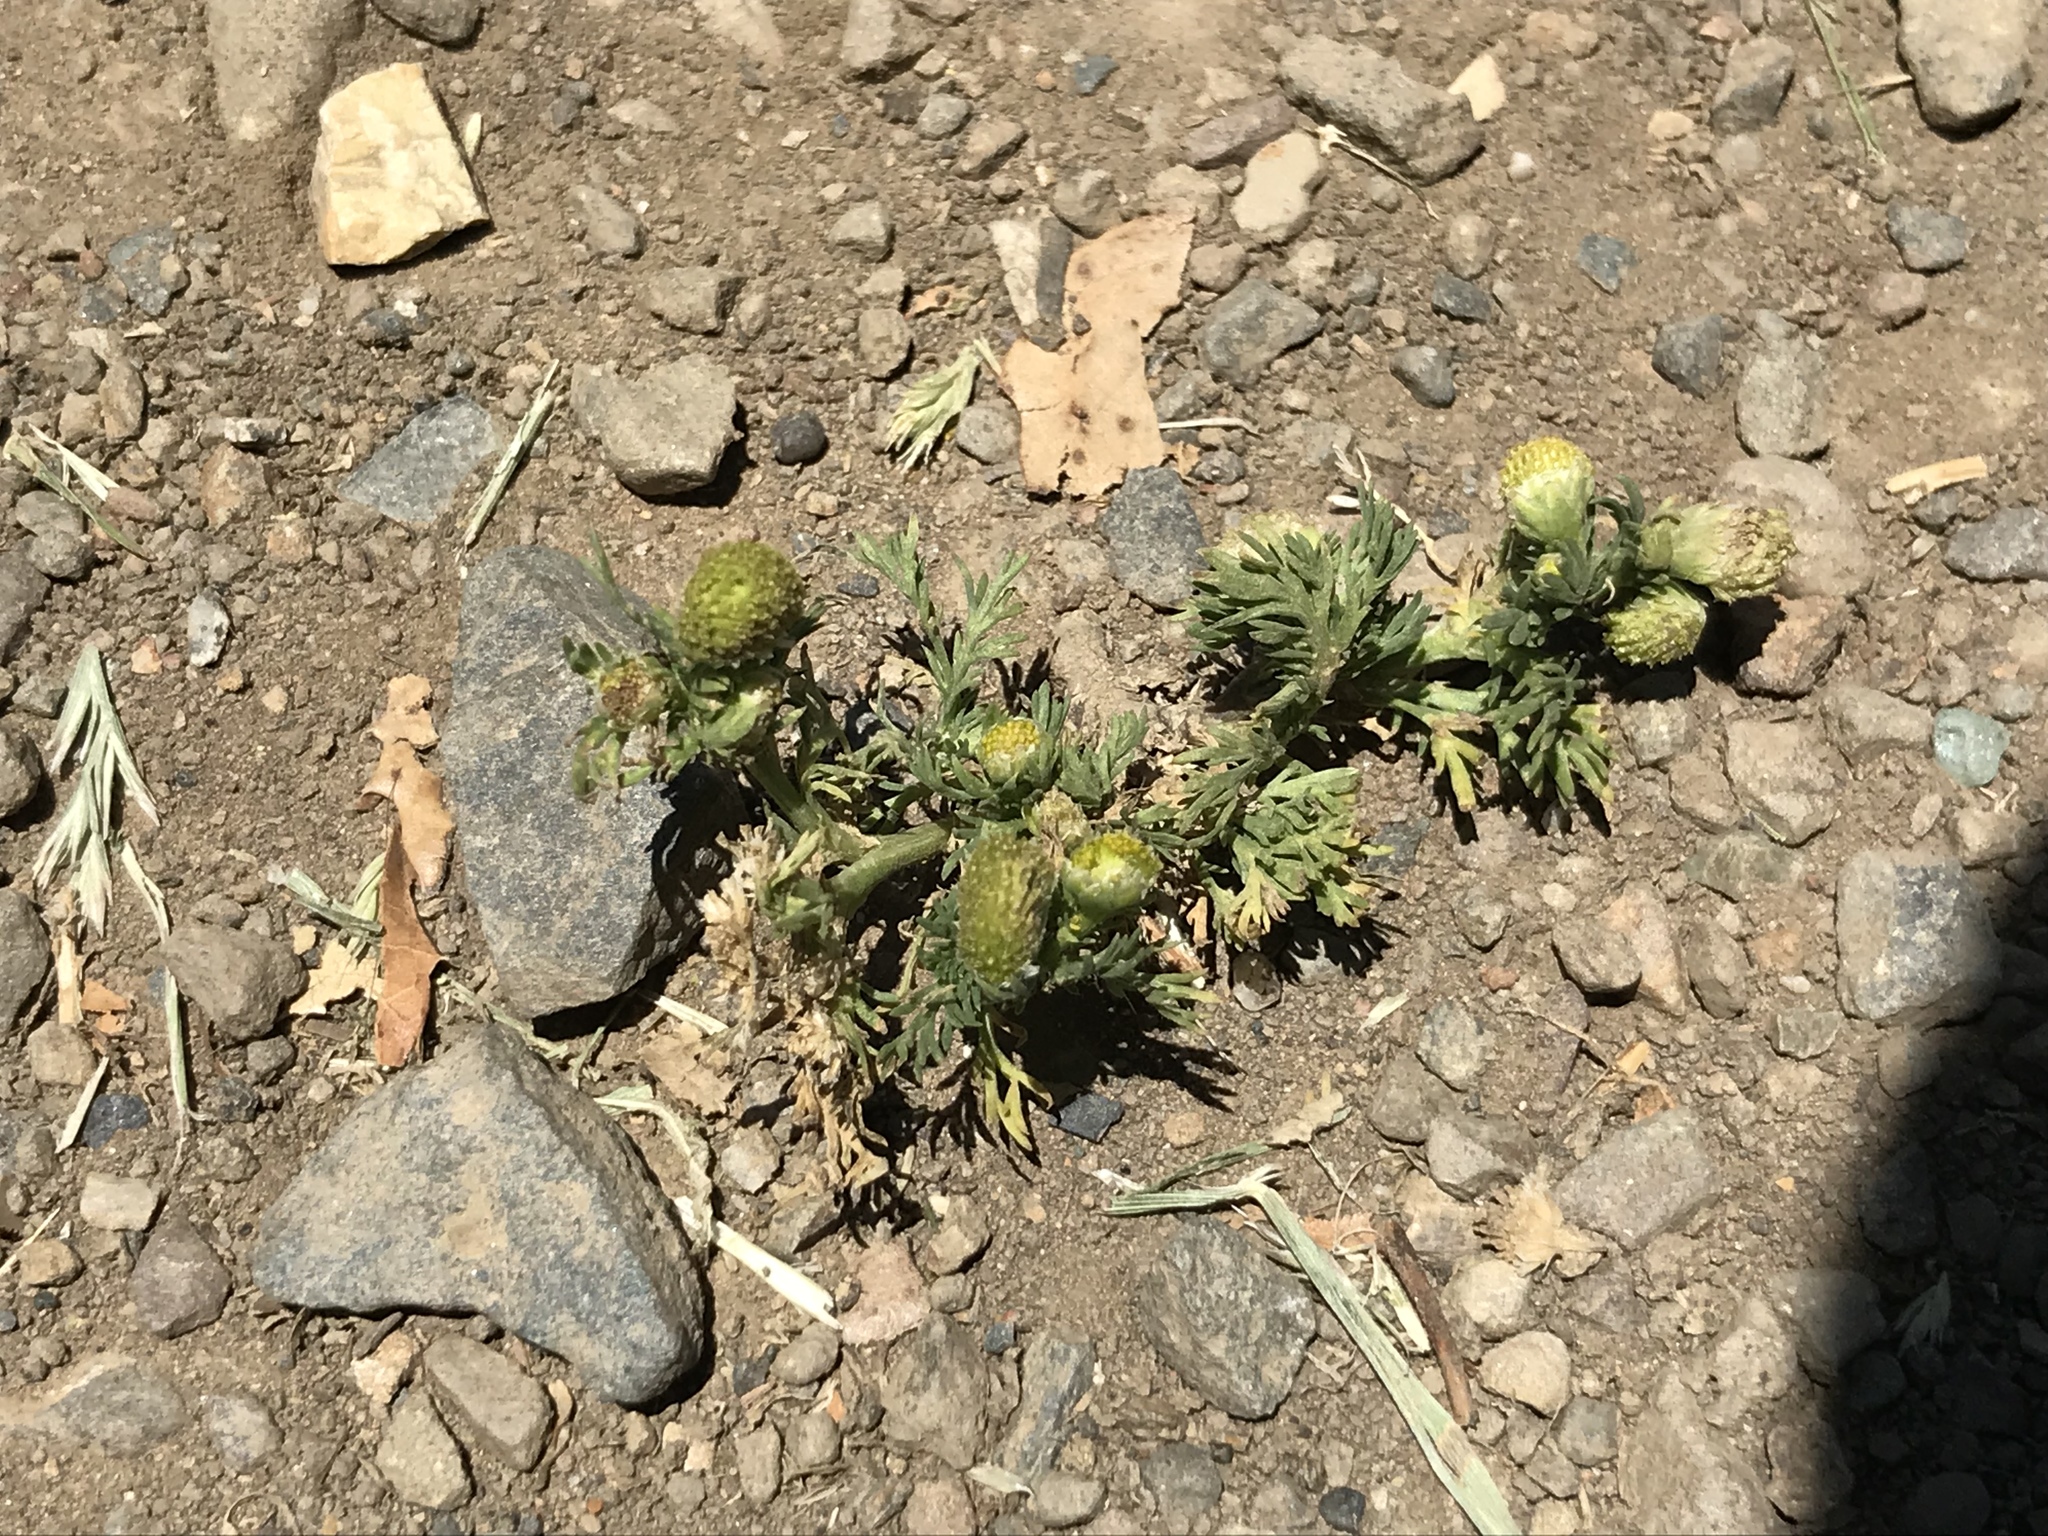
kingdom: Plantae
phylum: Tracheophyta
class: Magnoliopsida
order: Asterales
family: Asteraceae
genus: Matricaria
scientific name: Matricaria discoidea
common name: Disc mayweed
